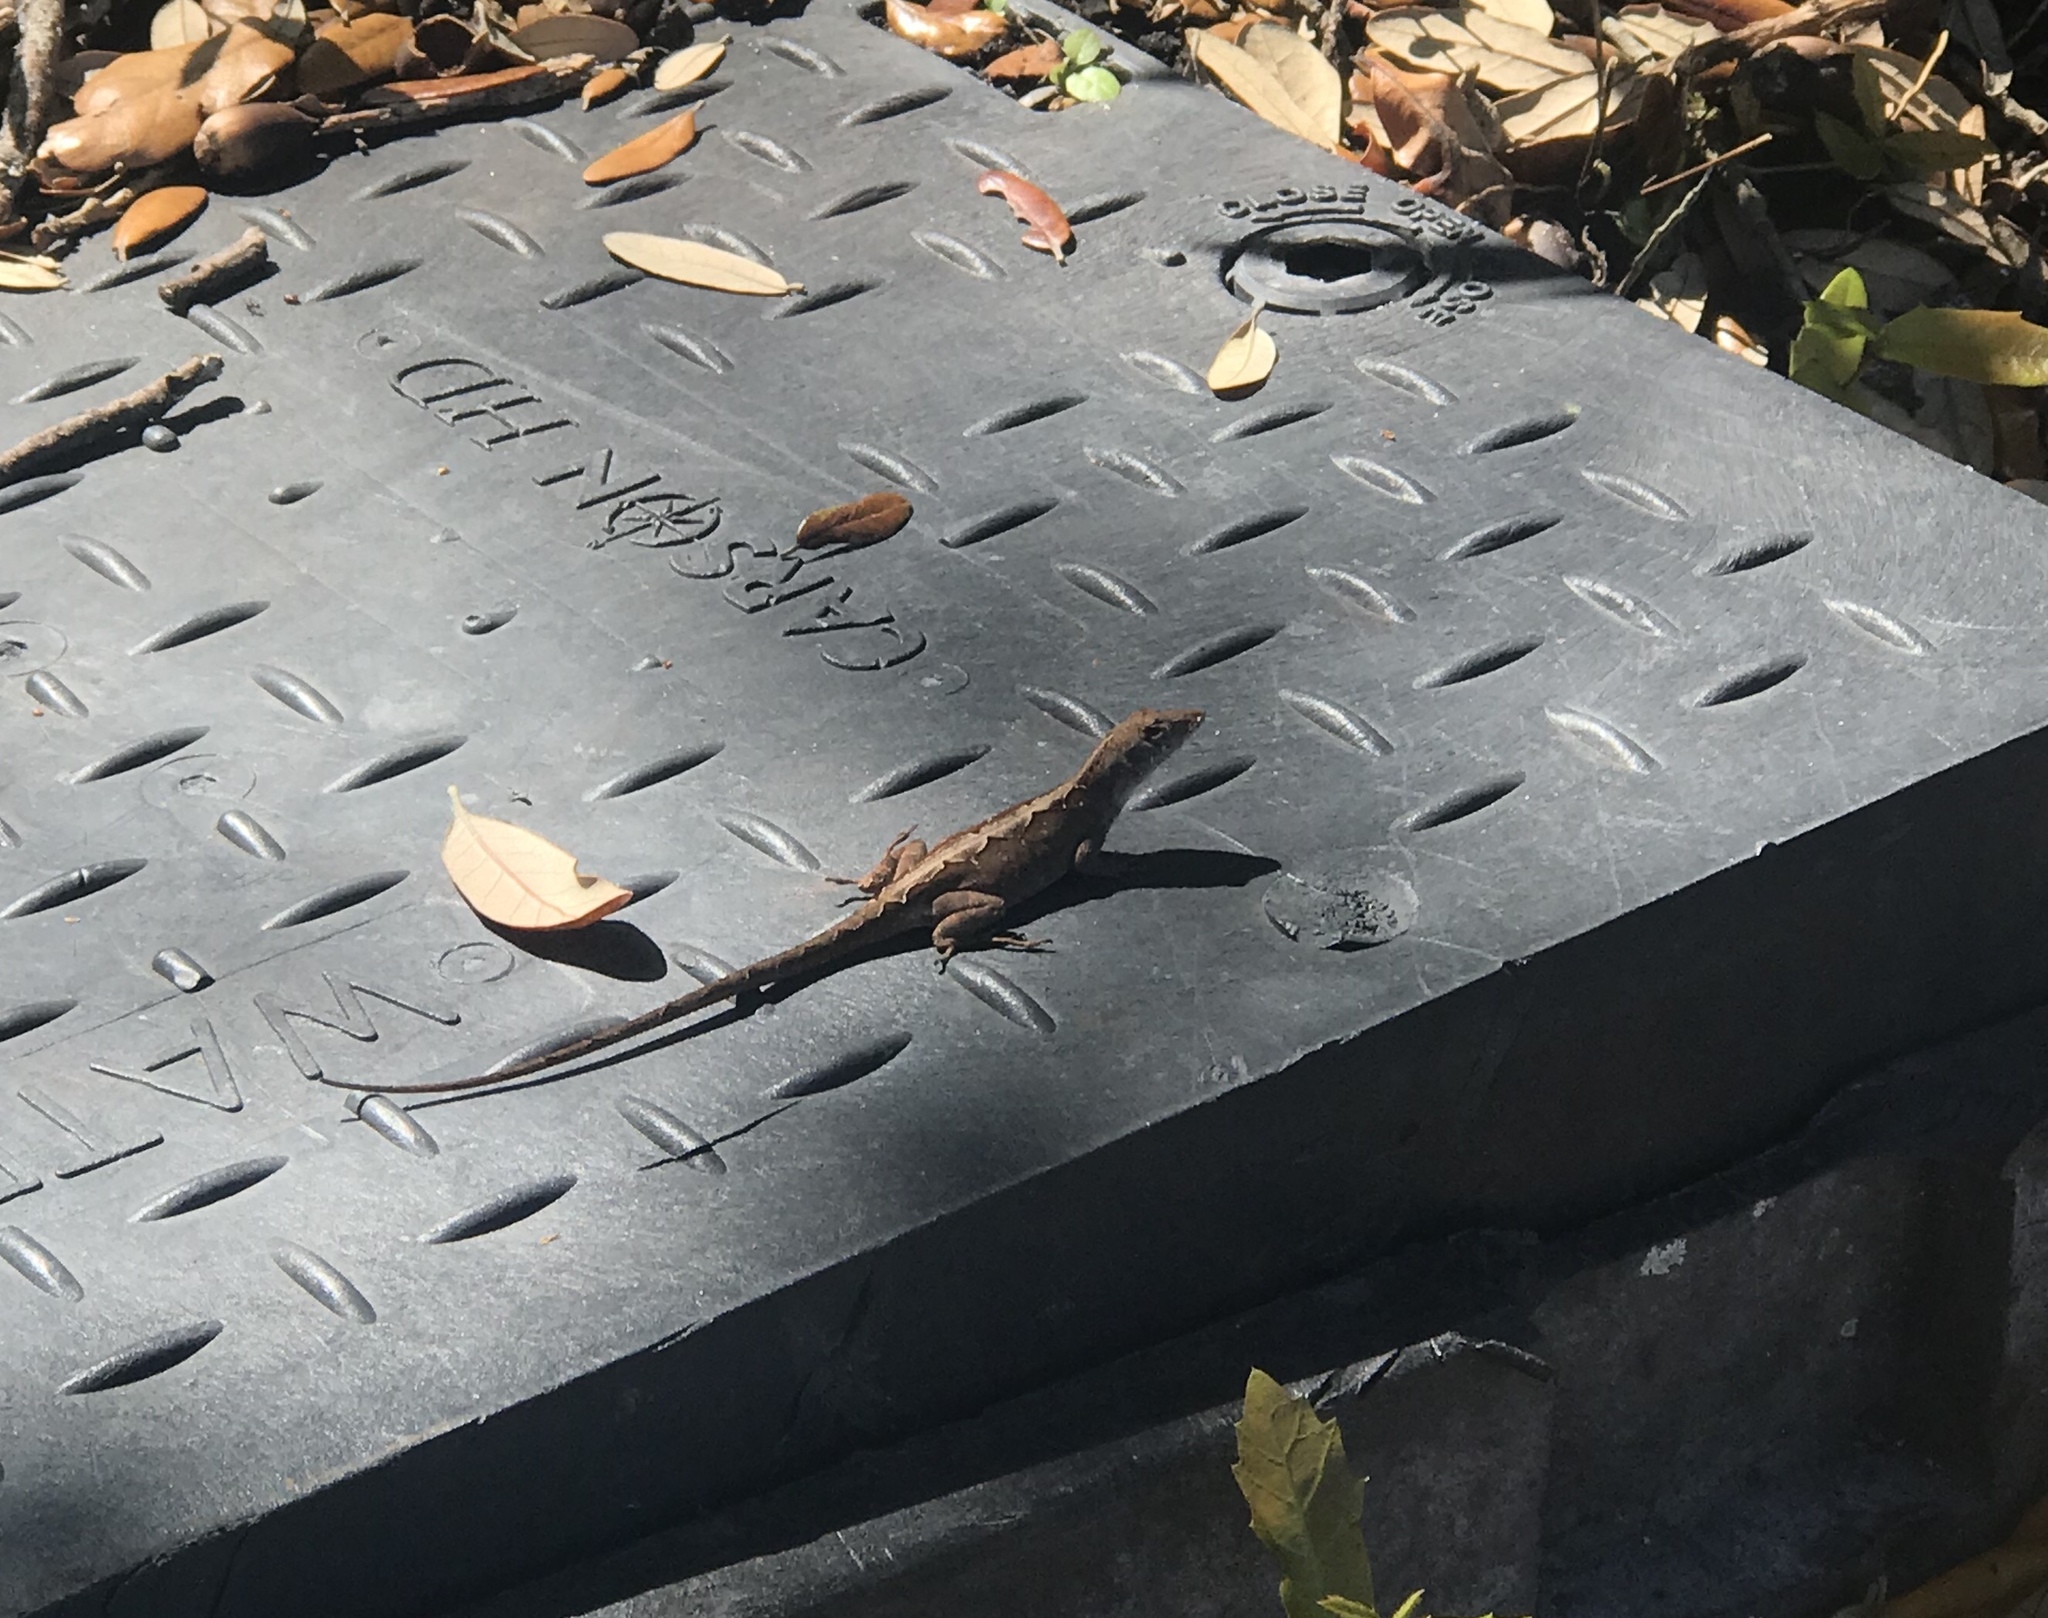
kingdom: Animalia
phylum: Chordata
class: Squamata
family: Dactyloidae
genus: Anolis
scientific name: Anolis sagrei
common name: Brown anole
